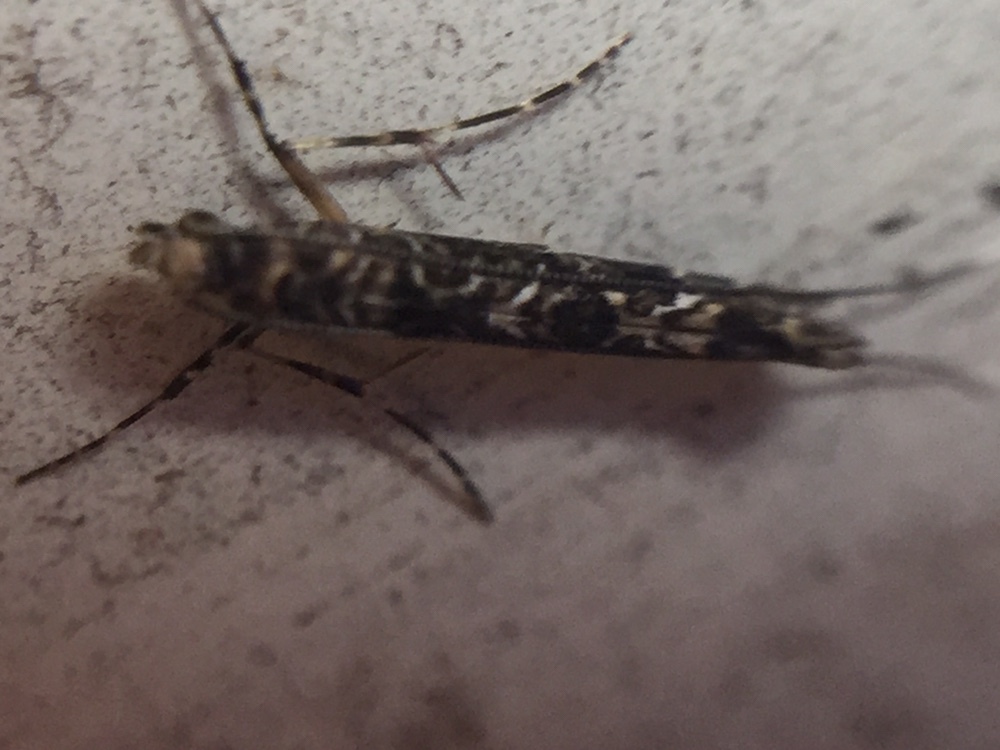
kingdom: Animalia
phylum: Arthropoda
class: Insecta
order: Lepidoptera
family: Gracillariidae
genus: Conopomorpha
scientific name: Conopomorpha cyanospila
